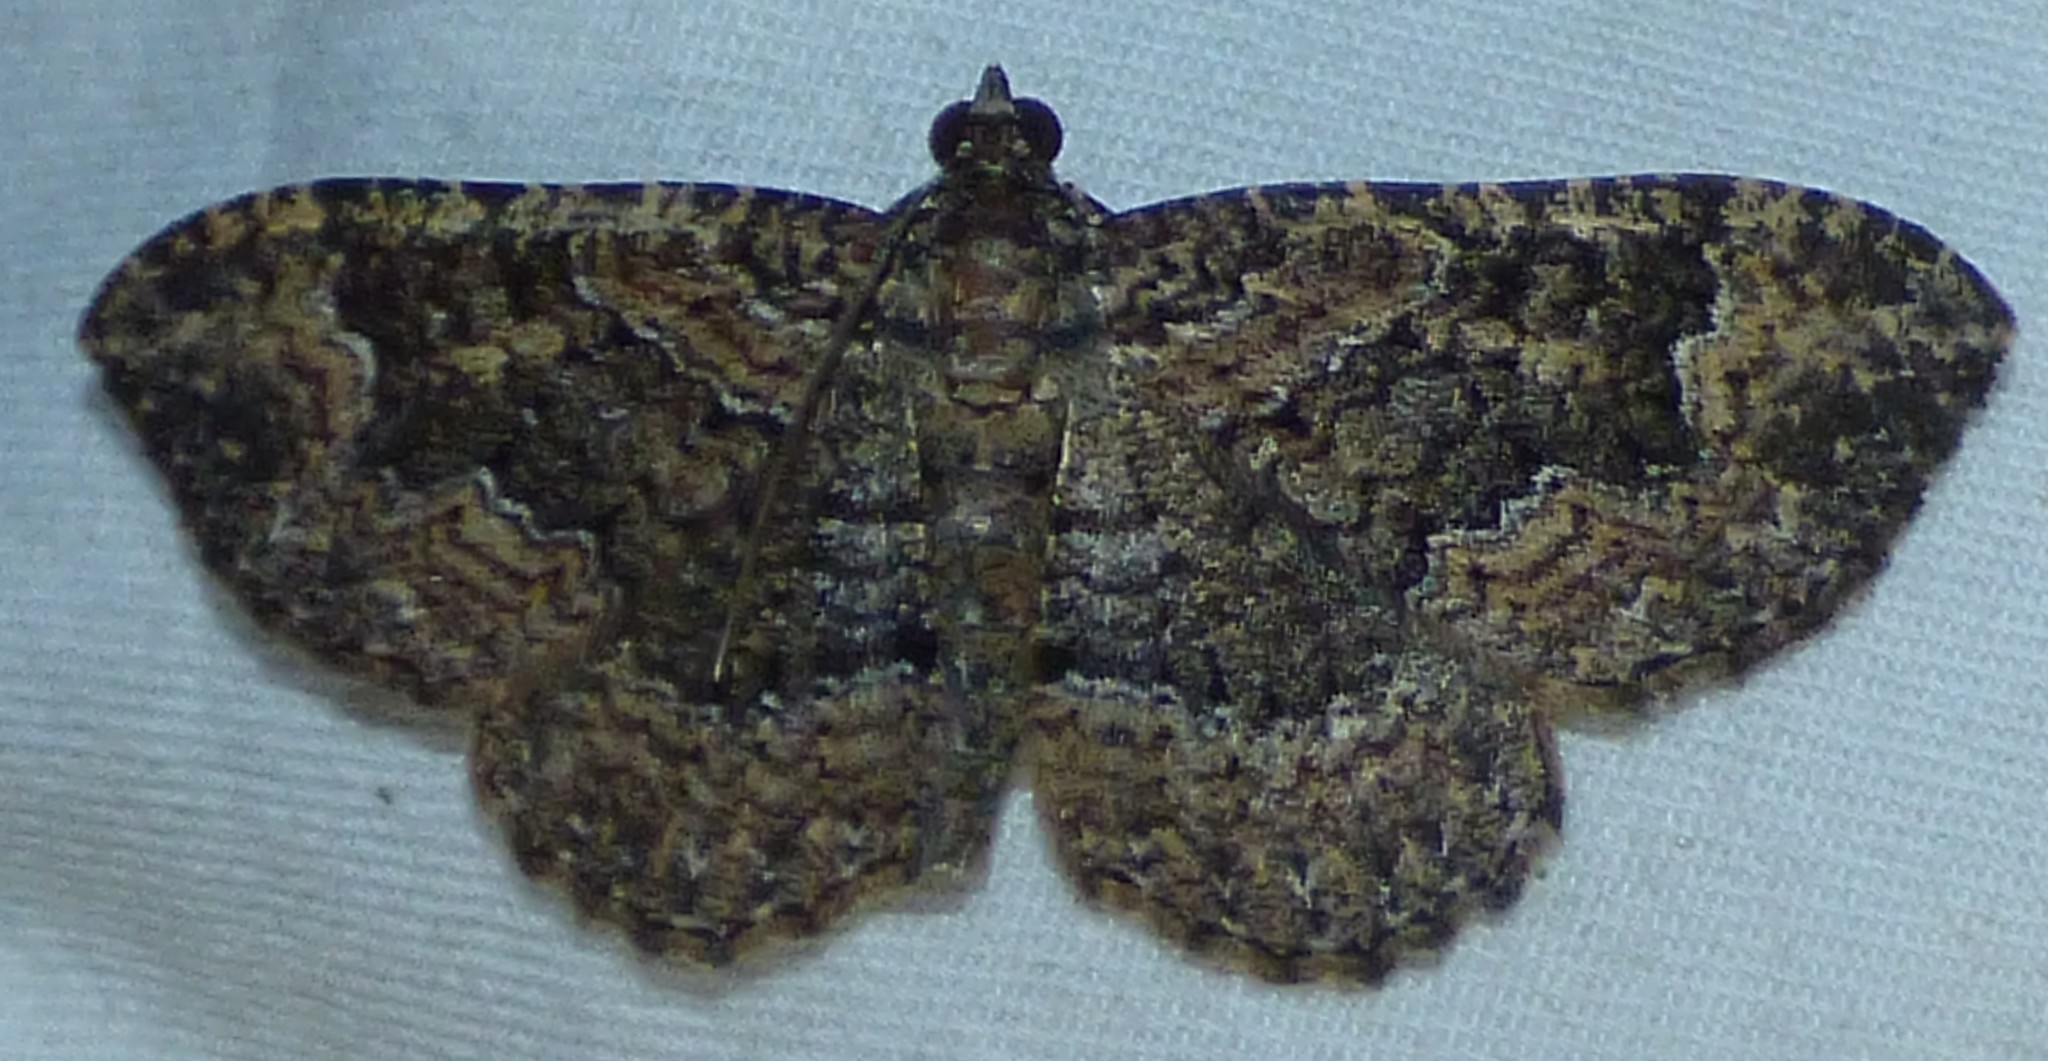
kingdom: Animalia
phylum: Arthropoda
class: Insecta
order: Lepidoptera
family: Geometridae
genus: Disclisioprocta
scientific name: Disclisioprocta stellata
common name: Somber carpet
